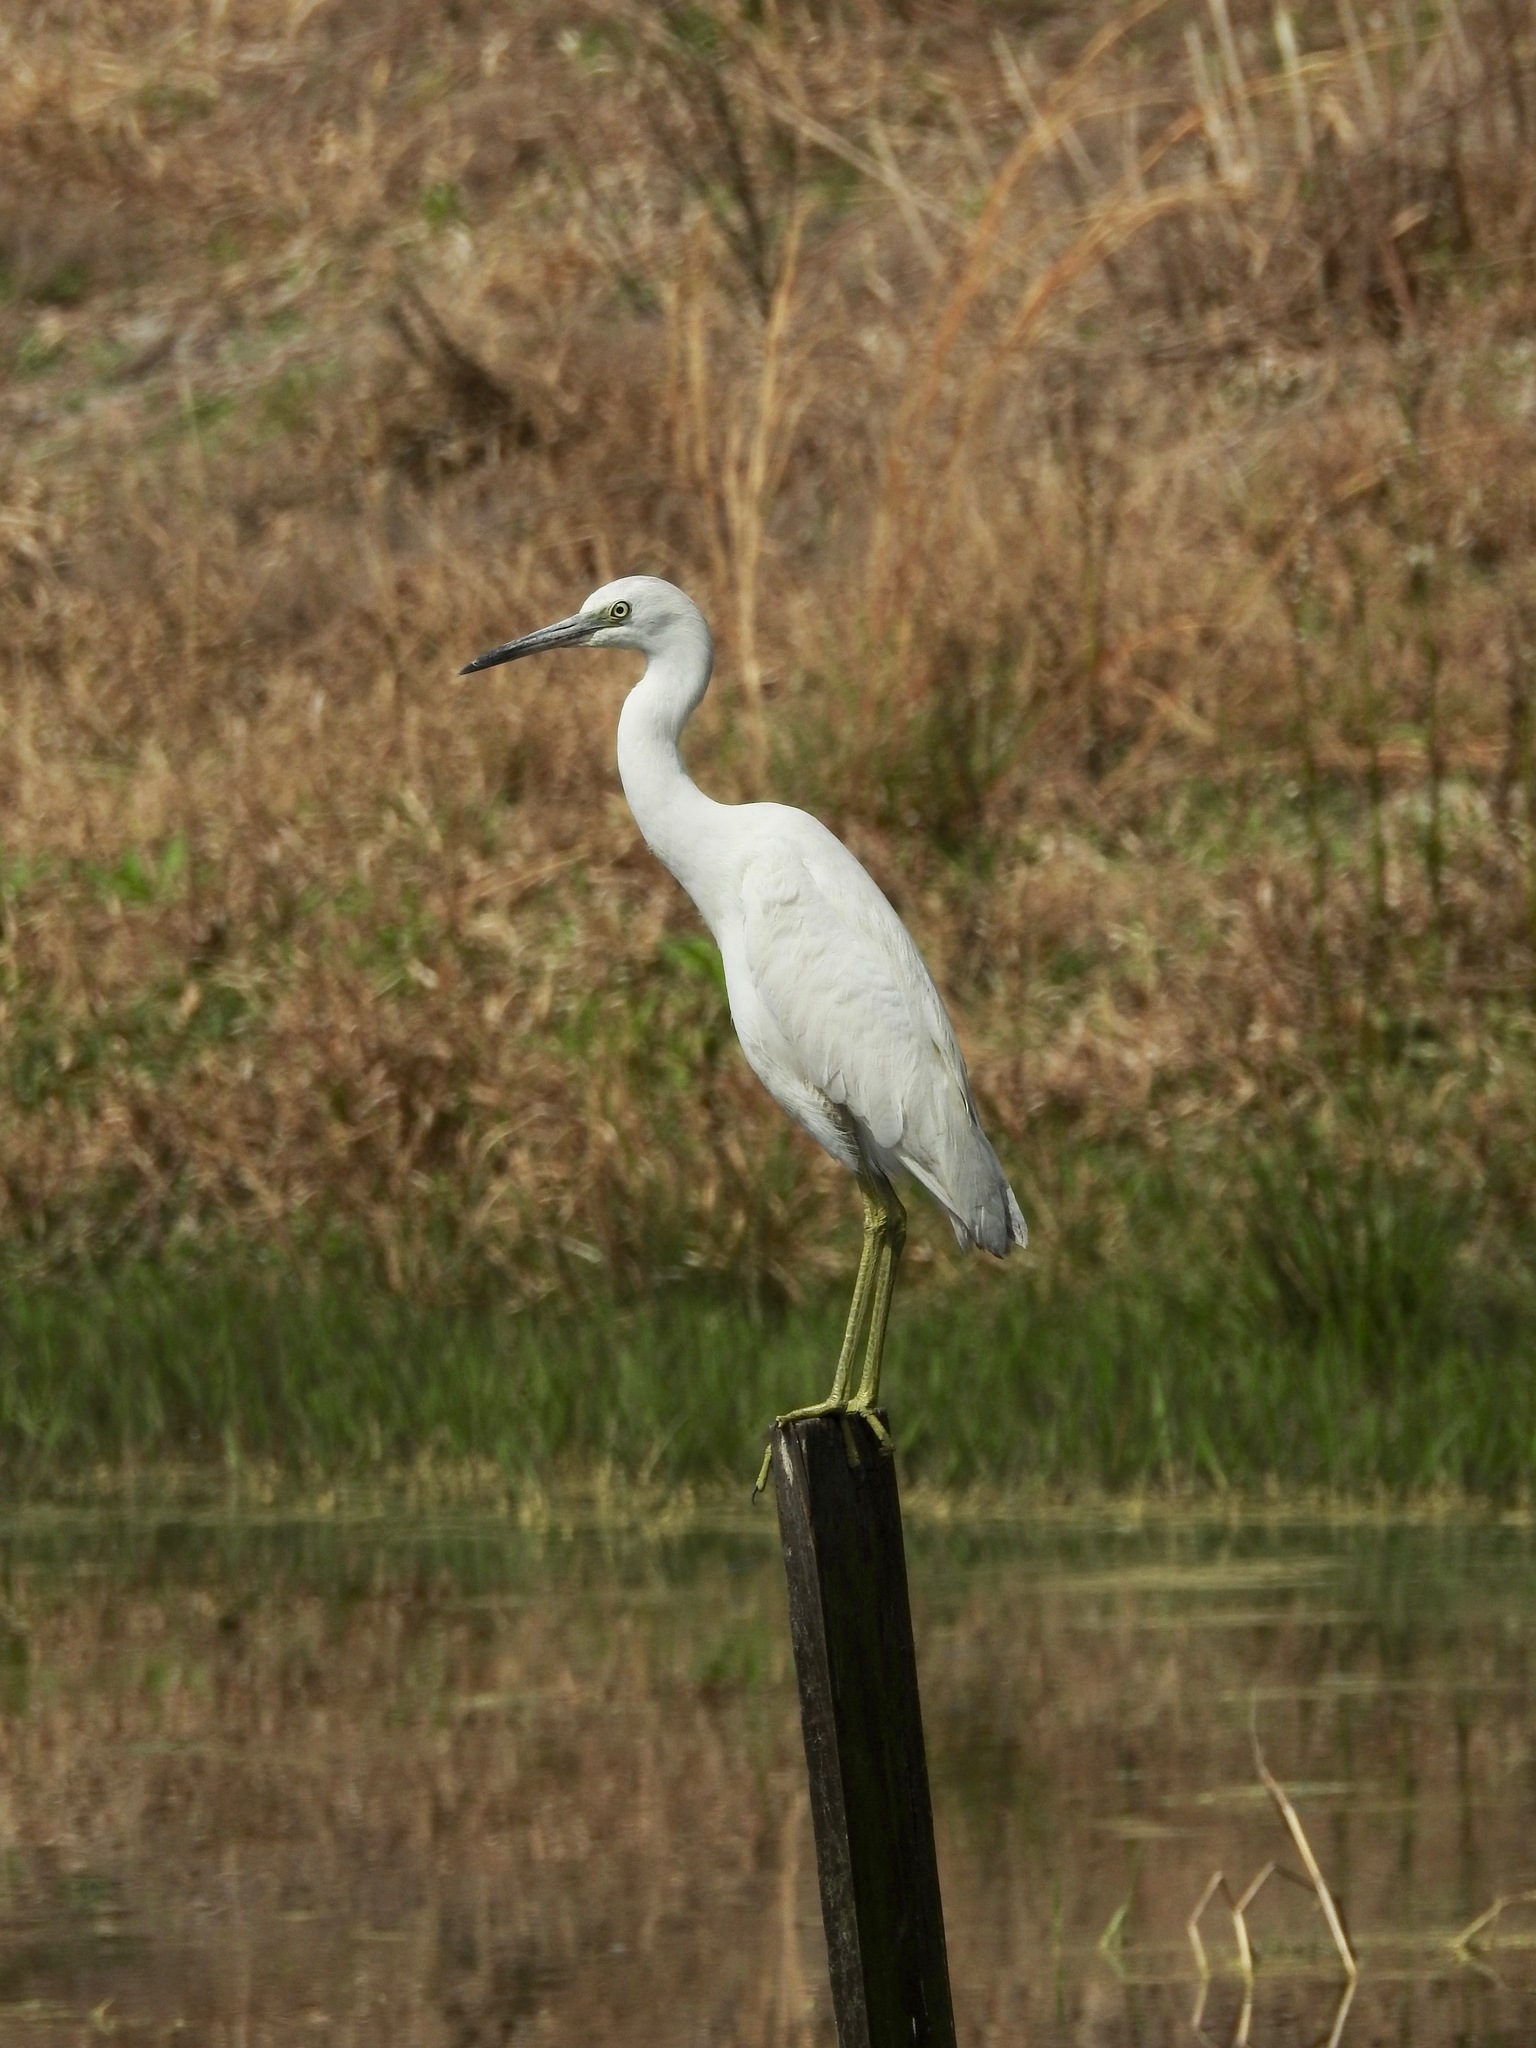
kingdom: Animalia
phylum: Chordata
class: Aves
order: Pelecaniformes
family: Ardeidae
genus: Egretta
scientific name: Egretta caerulea
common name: Little blue heron
